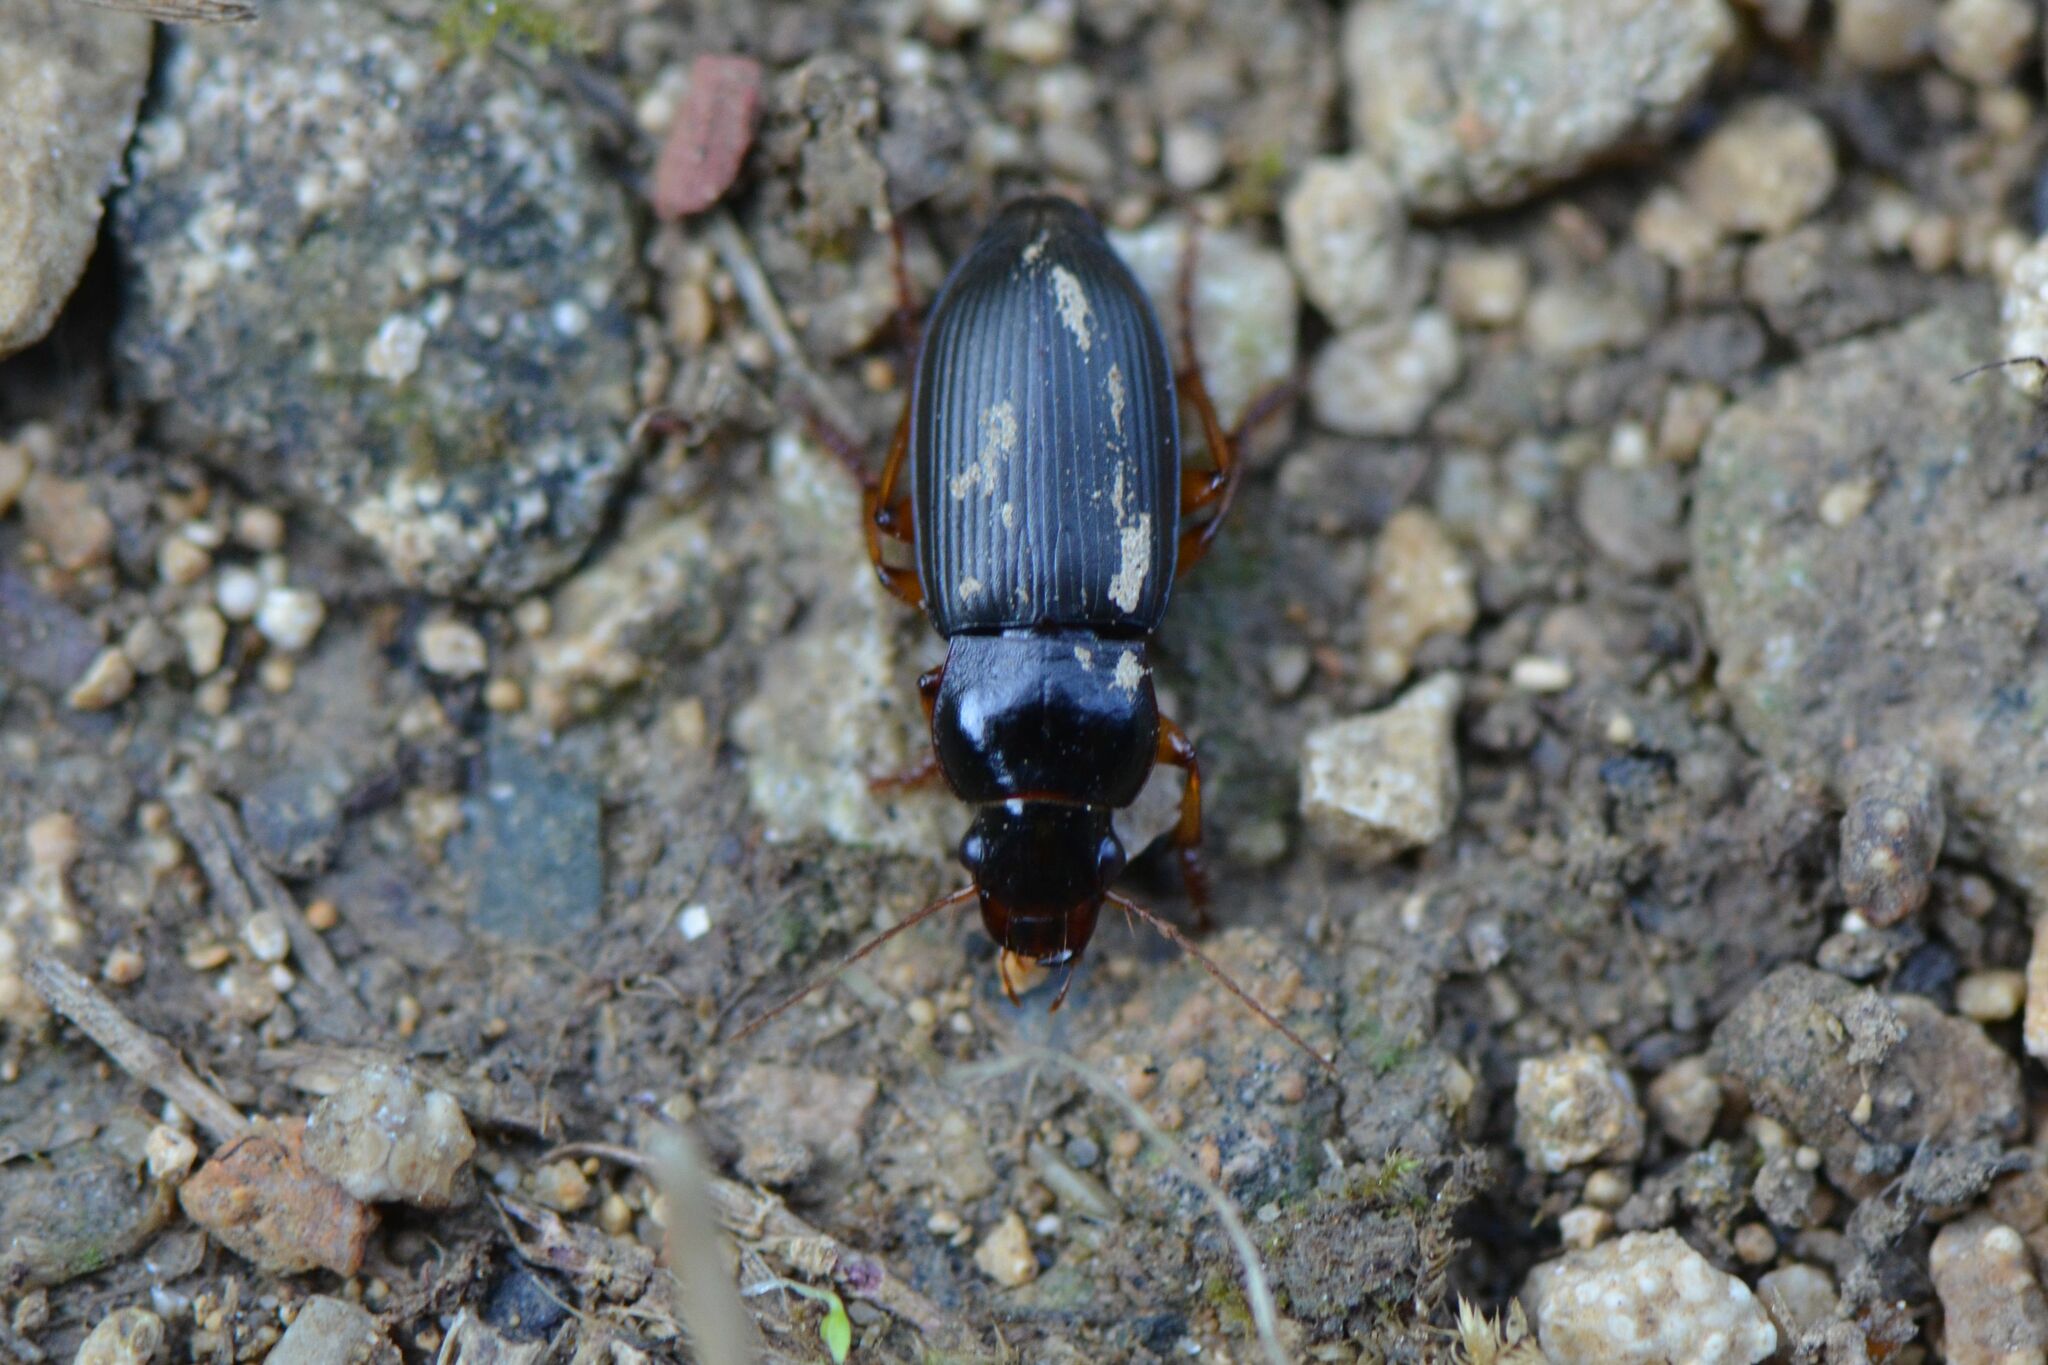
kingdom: Animalia
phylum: Arthropoda
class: Insecta
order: Coleoptera
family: Carabidae
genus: Harpalus
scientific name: Harpalus rufipes
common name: Strawberry harp ground beetle
